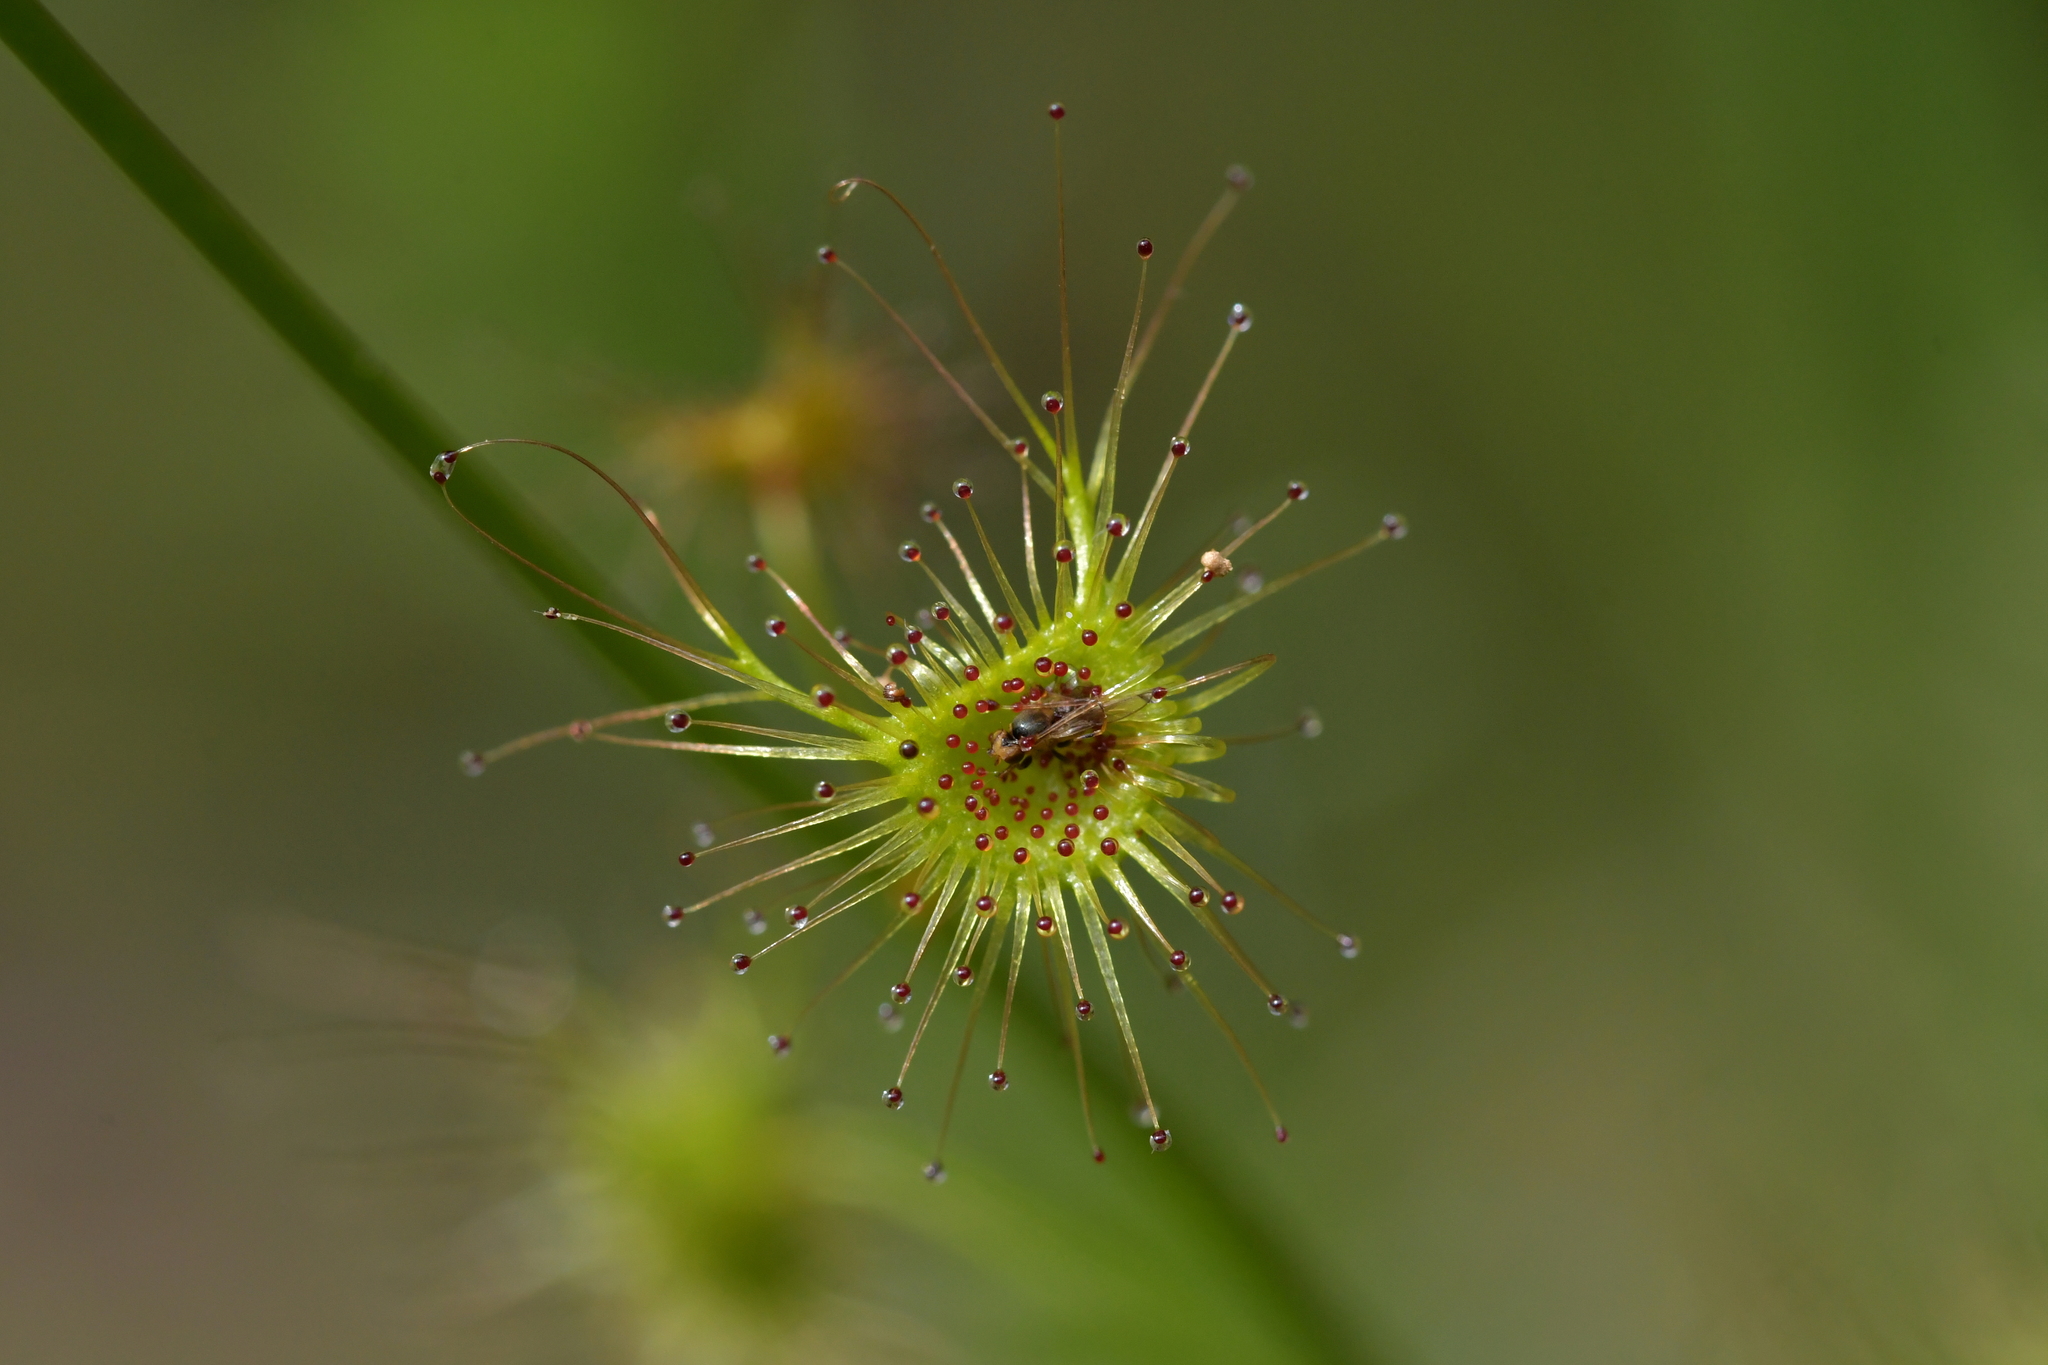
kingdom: Plantae
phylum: Tracheophyta
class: Magnoliopsida
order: Caryophyllales
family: Droseraceae
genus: Drosera
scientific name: Drosera peltata
